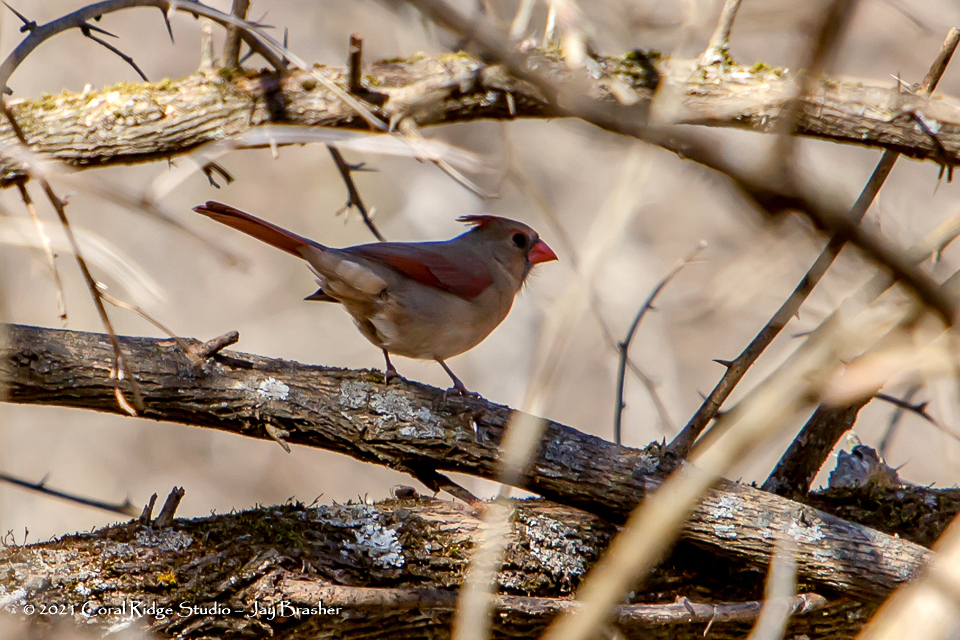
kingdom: Animalia
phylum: Chordata
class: Aves
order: Passeriformes
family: Cardinalidae
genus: Cardinalis
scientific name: Cardinalis cardinalis
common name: Northern cardinal
